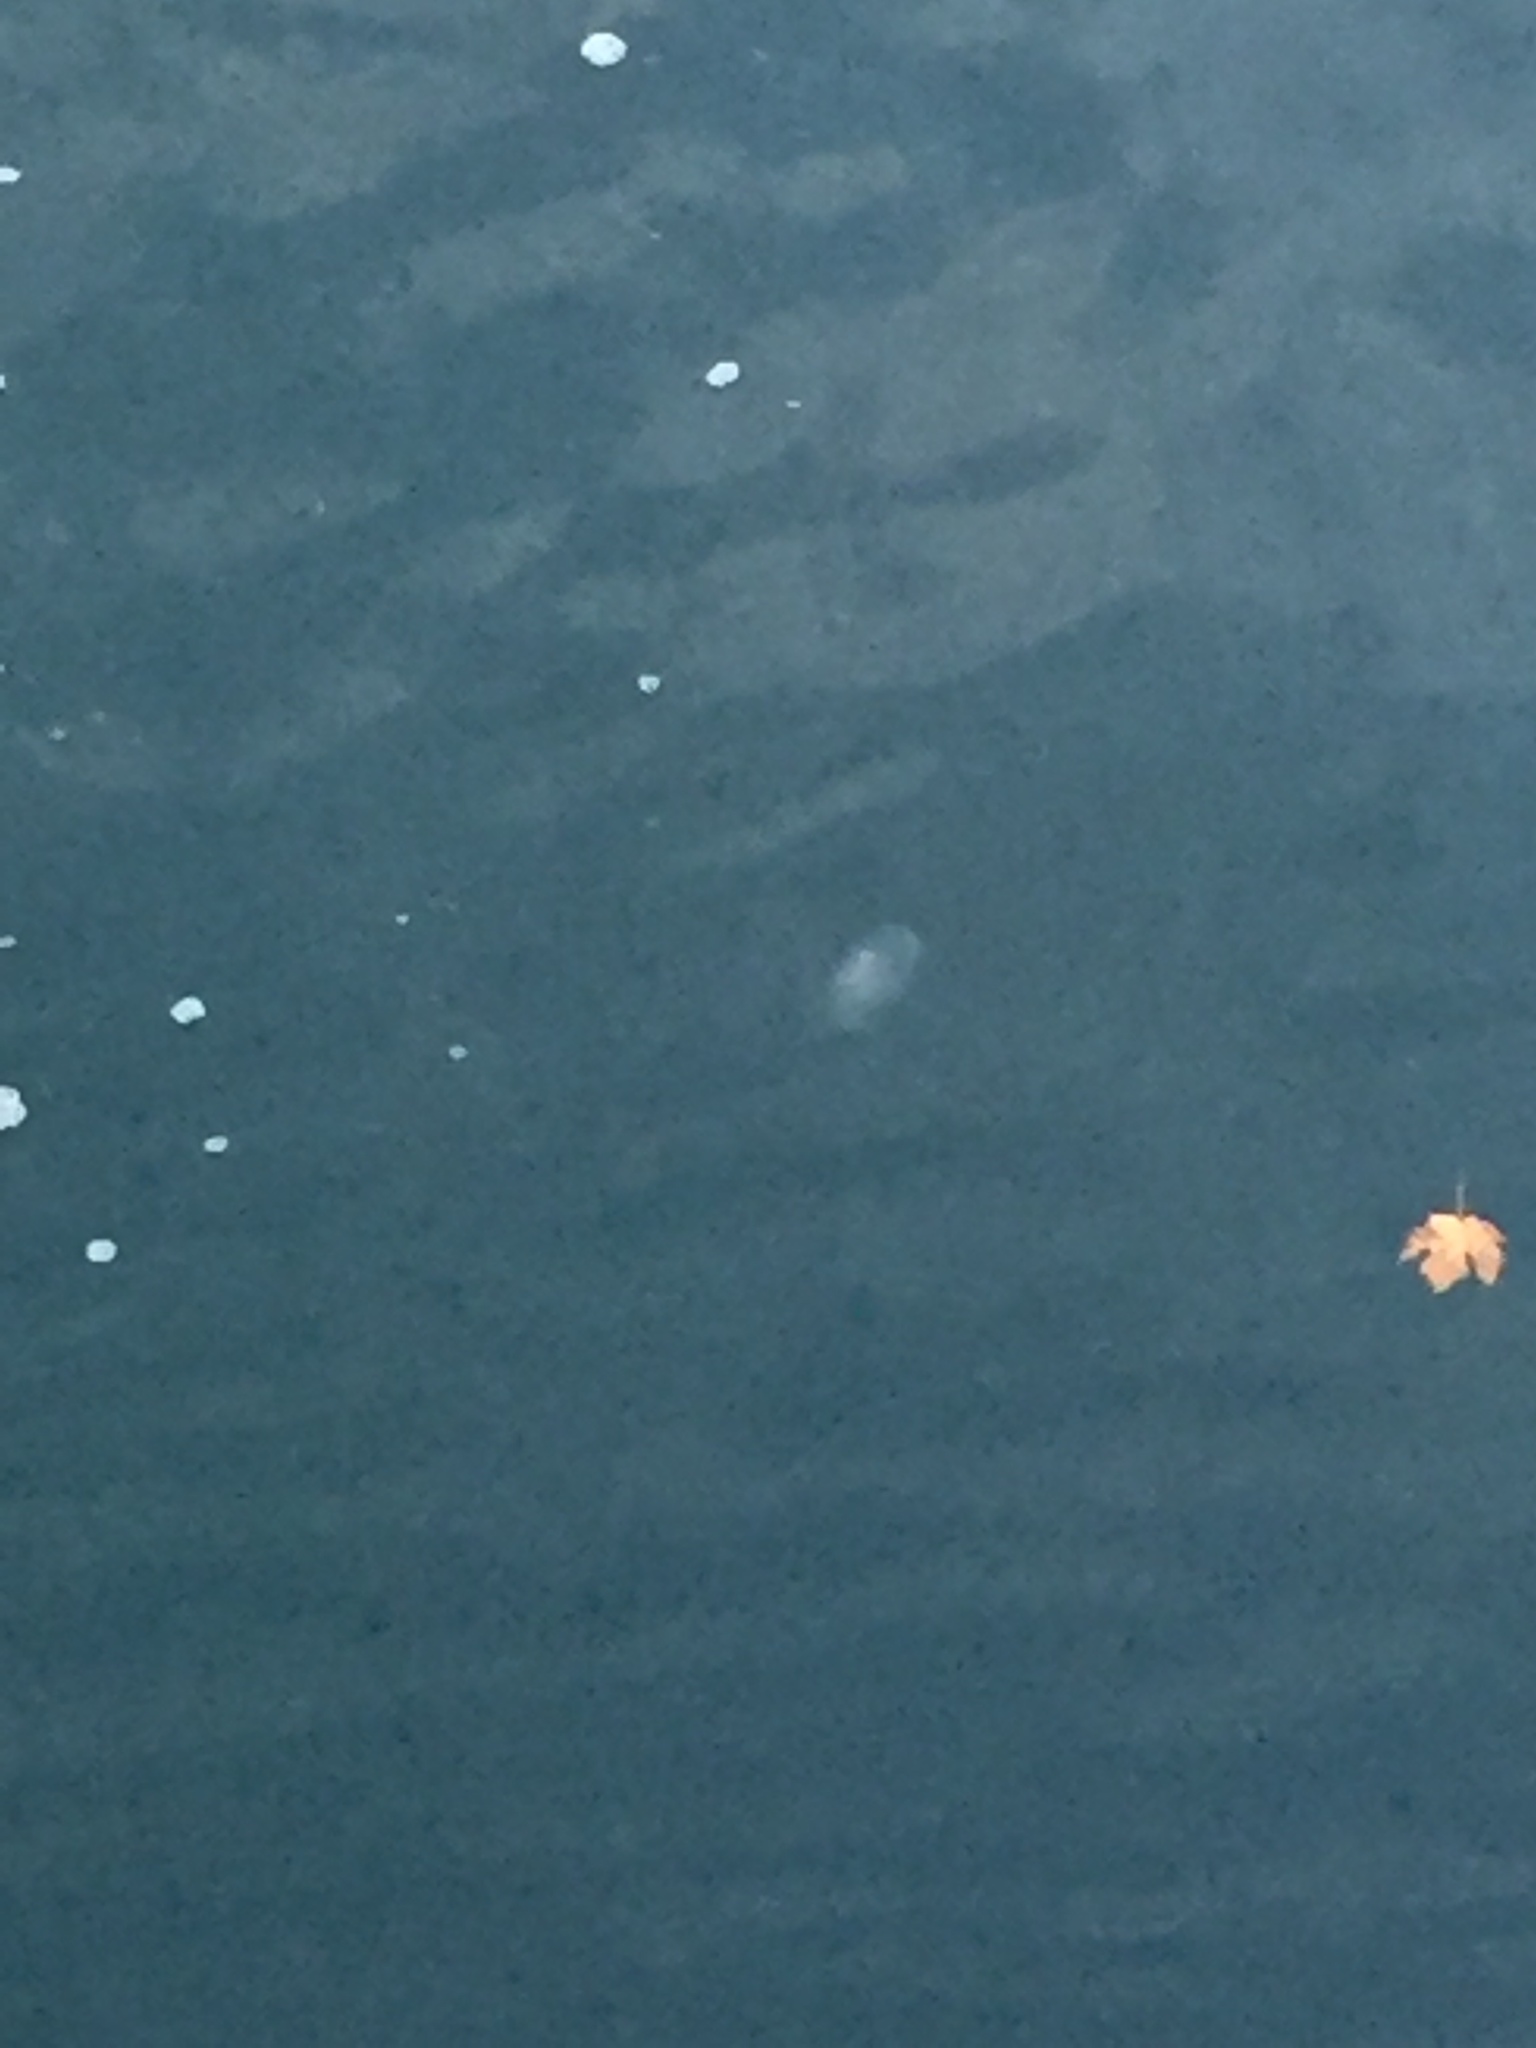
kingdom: Animalia
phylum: Cnidaria
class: Scyphozoa
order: Semaeostomeae
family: Ulmaridae
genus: Aurelia
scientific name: Aurelia labiata
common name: Pacific moon jelly
